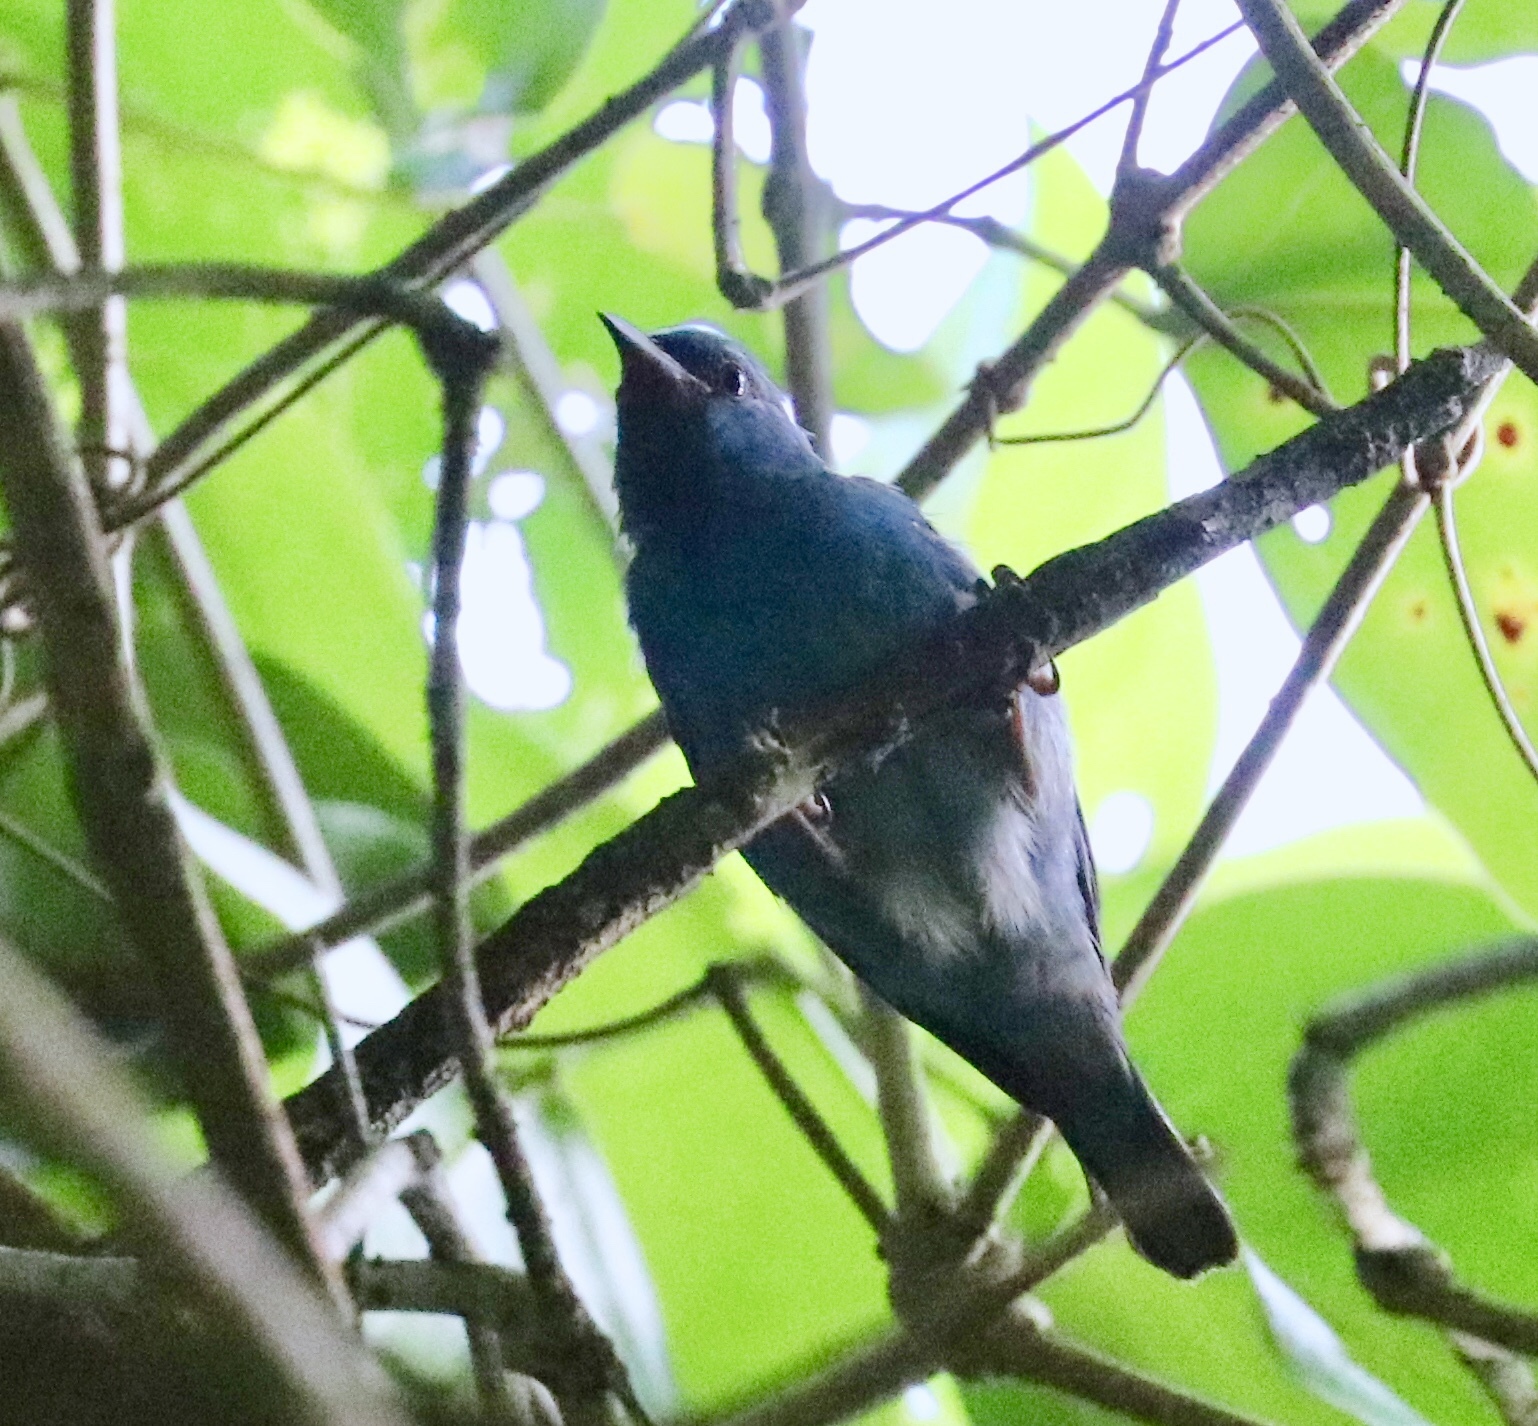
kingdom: Animalia
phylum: Chordata
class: Aves
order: Passeriformes
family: Thraupidae
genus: Dacnis
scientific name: Dacnis cayana
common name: Blue dacnis
